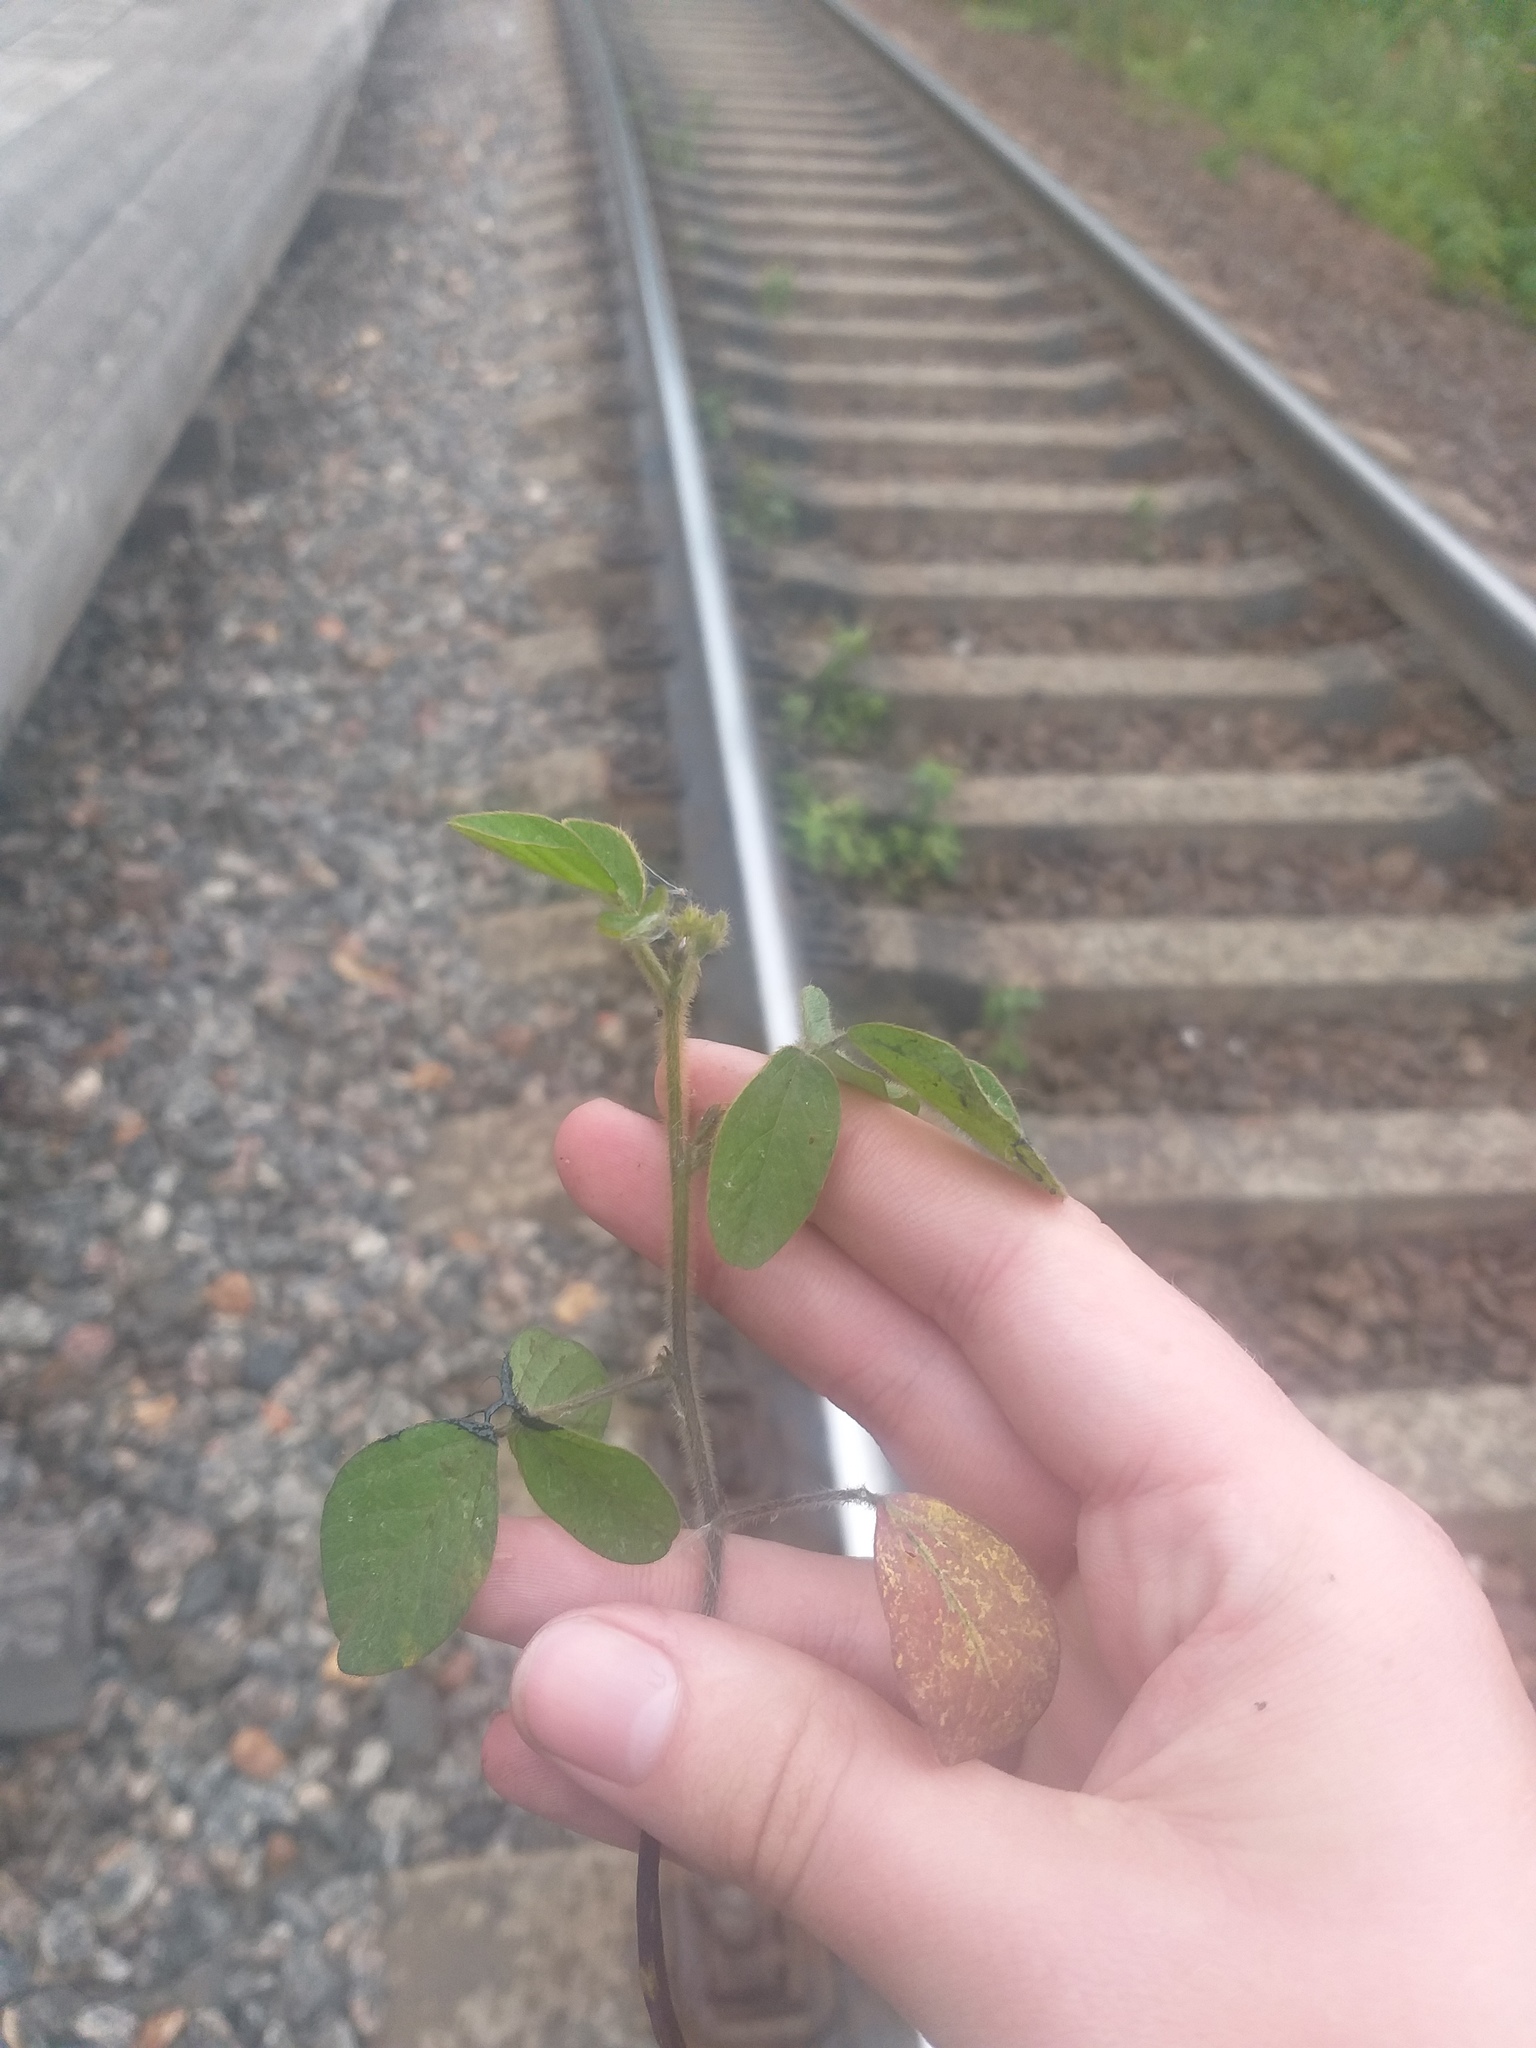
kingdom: Plantae
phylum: Tracheophyta
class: Magnoliopsida
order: Fabales
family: Fabaceae
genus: Glycine
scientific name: Glycine max
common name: Soya-bean
